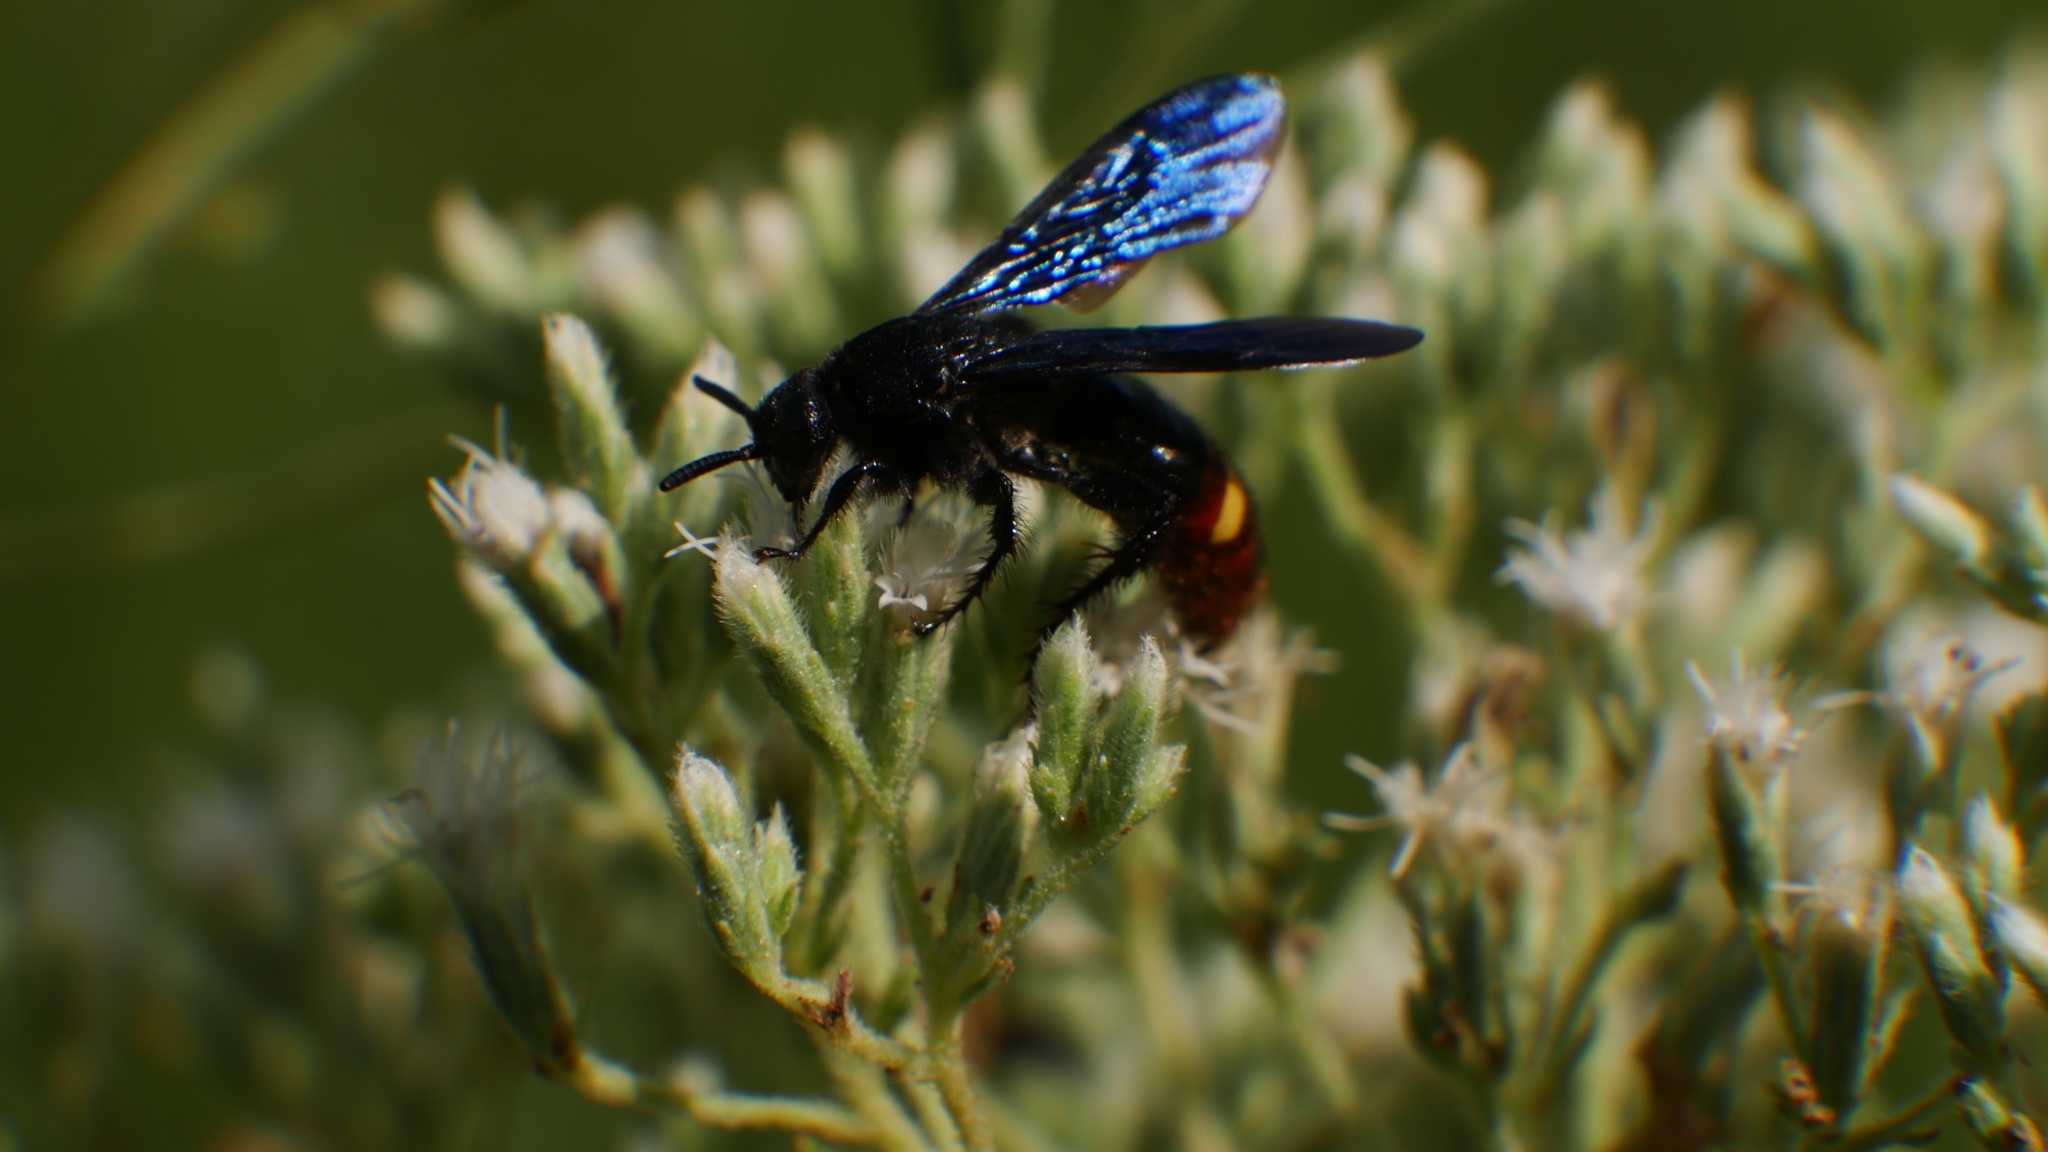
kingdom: Animalia
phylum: Arthropoda
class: Insecta
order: Hymenoptera
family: Scoliidae
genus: Scolia
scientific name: Scolia dubia
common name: Blue-winged scoliid wasp
